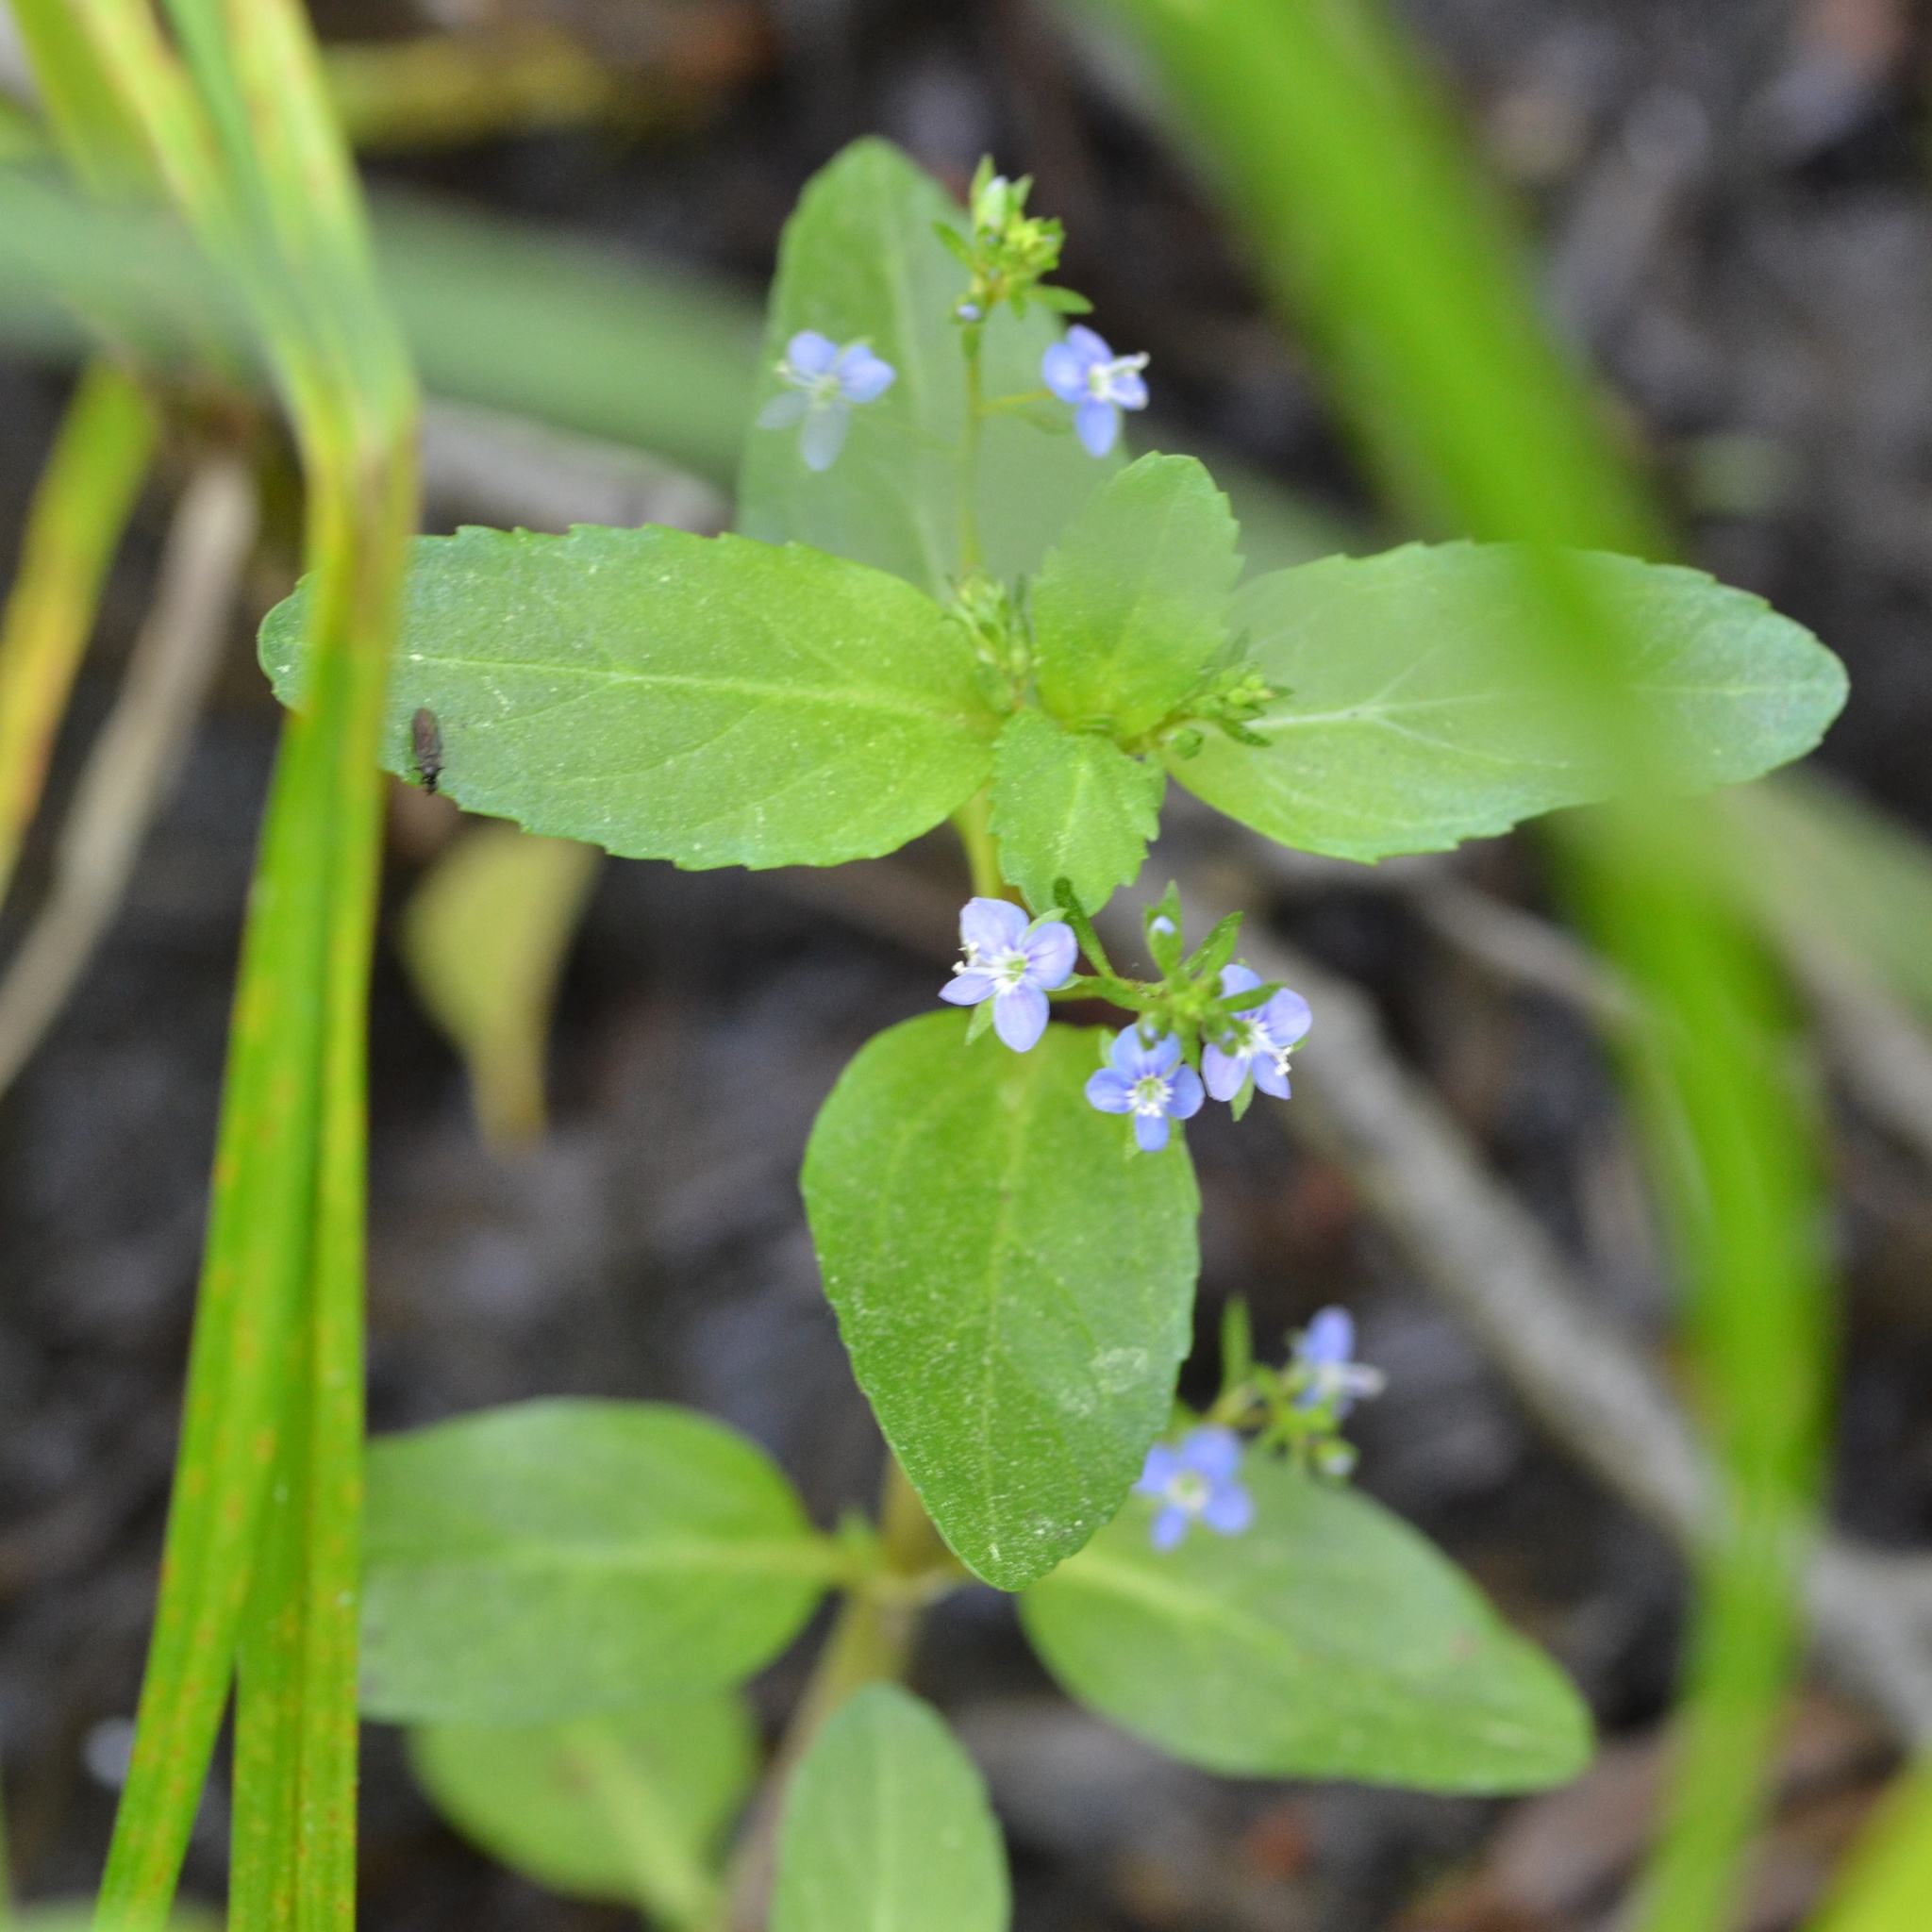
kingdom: Plantae
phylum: Tracheophyta
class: Magnoliopsida
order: Lamiales
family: Plantaginaceae
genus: Veronica
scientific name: Veronica beccabunga
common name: Brooklime
